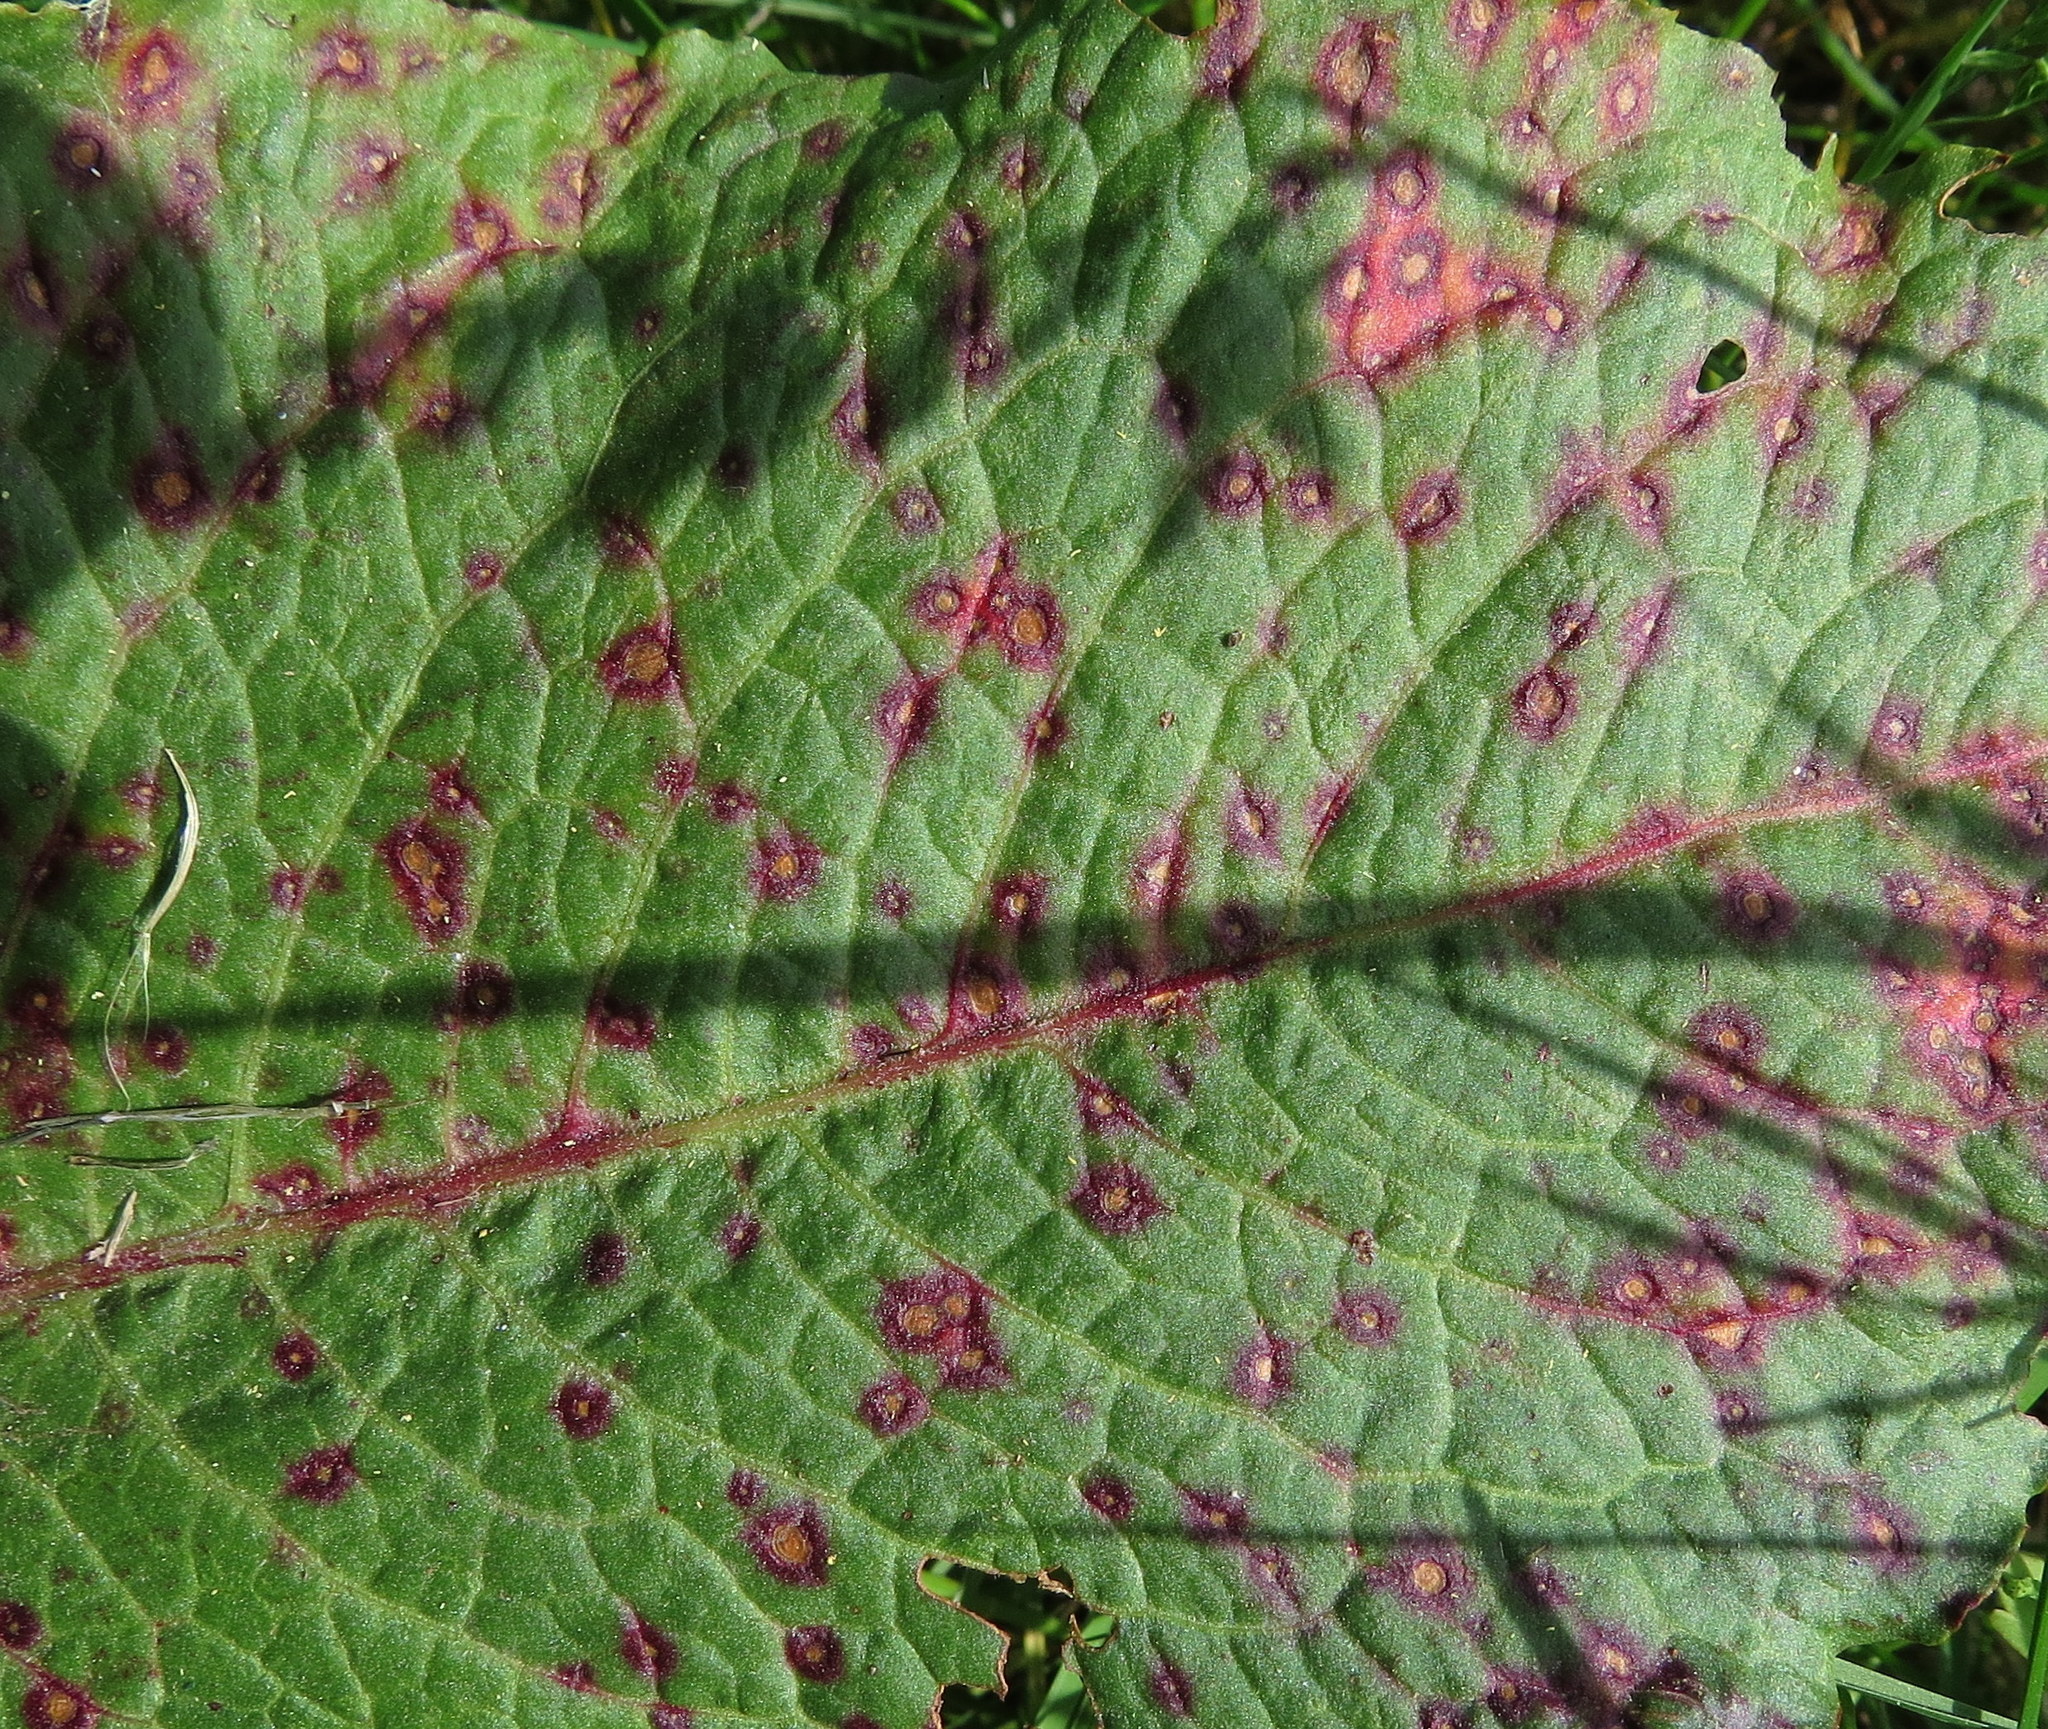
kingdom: Fungi
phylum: Ascomycota
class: Dothideomycetes
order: Mycosphaerellales
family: Mycosphaerellaceae
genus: Ramularia
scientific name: Ramularia rubella
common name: Red dock spot
